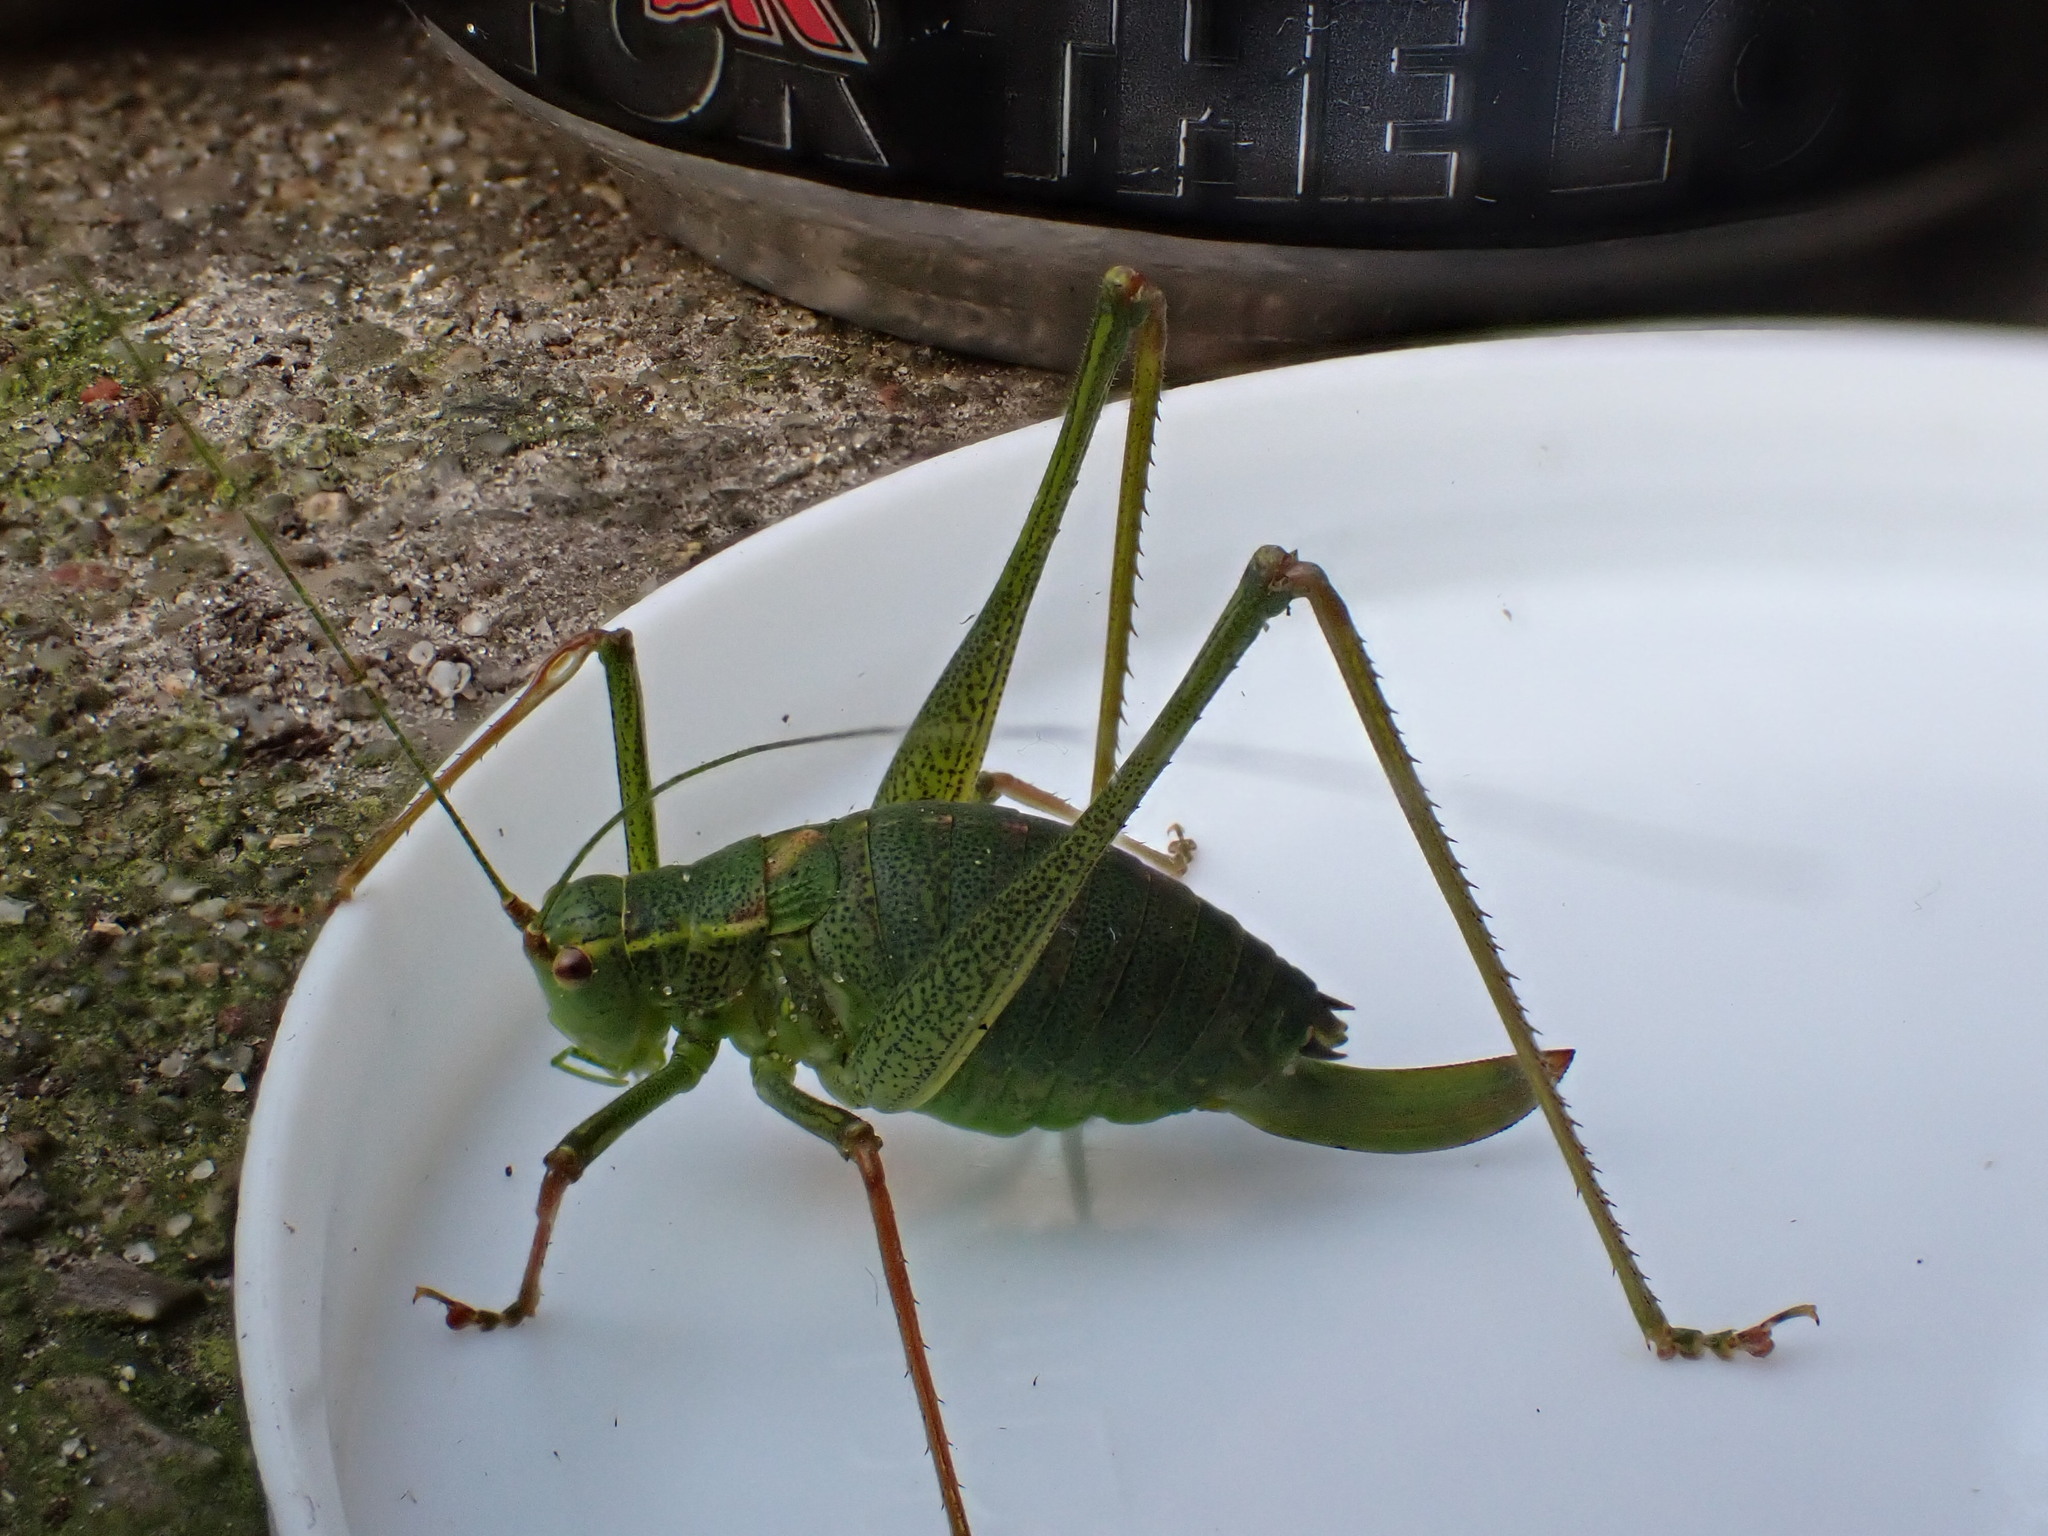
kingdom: Animalia
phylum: Arthropoda
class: Insecta
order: Orthoptera
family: Tettigoniidae
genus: Leptophyes
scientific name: Leptophyes punctatissima
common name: Speckled bush-cricket
